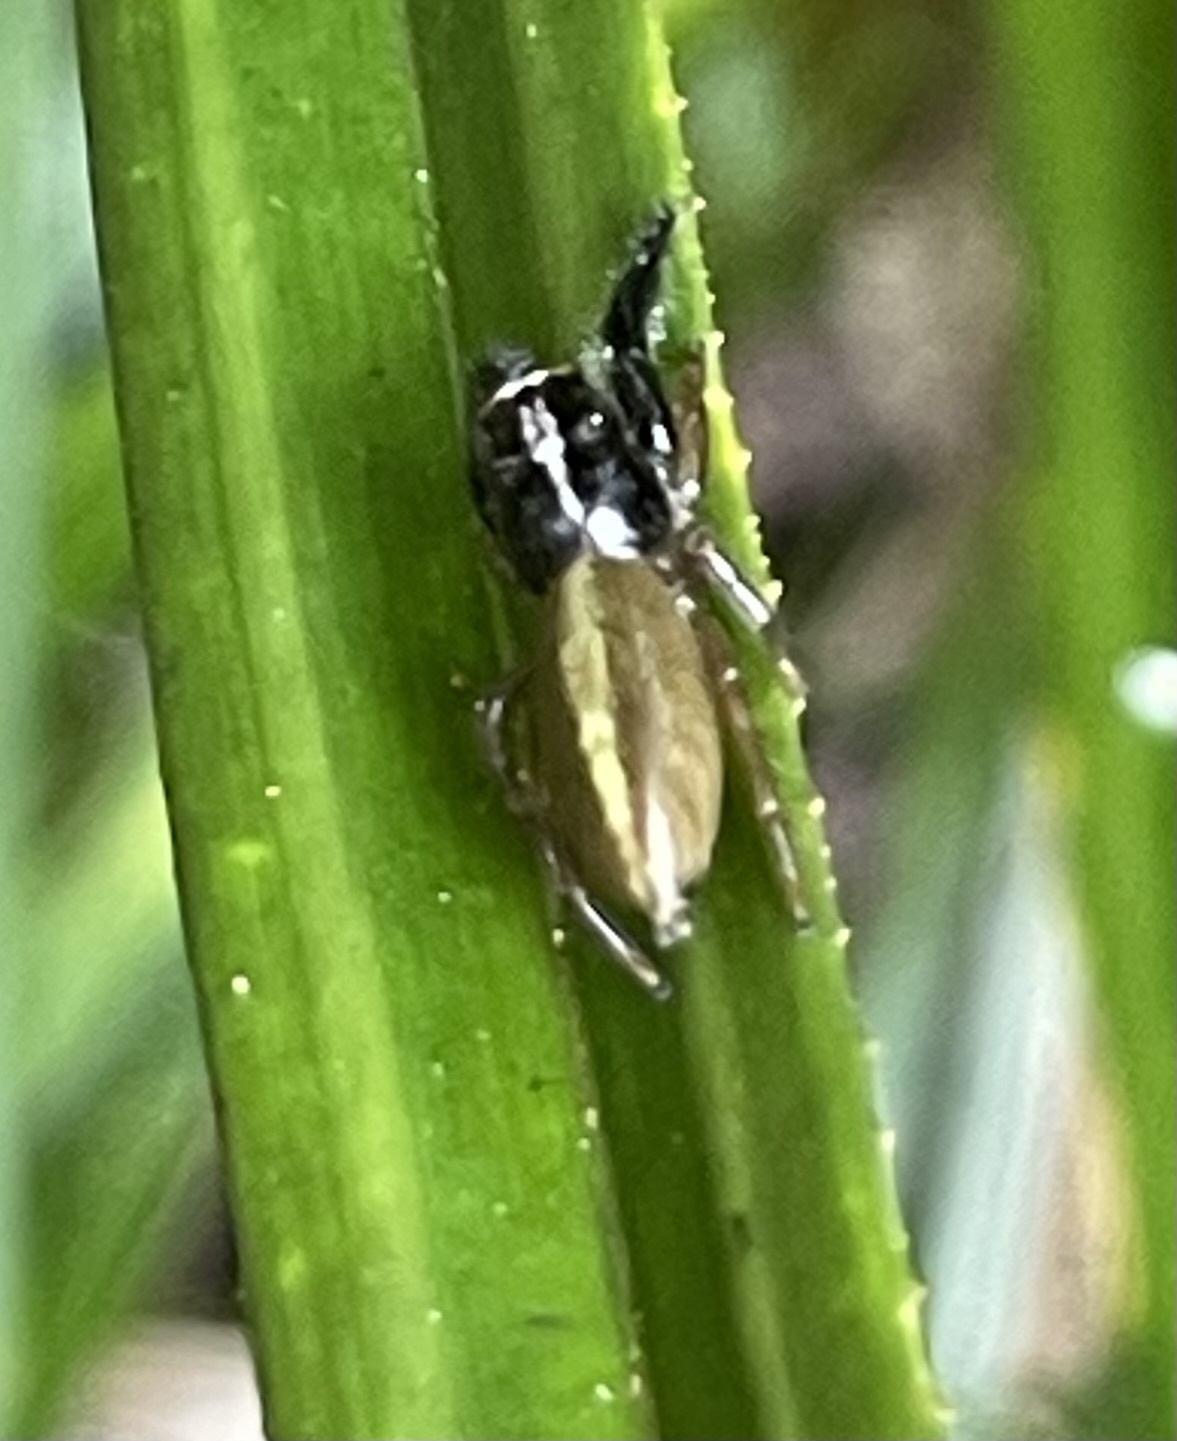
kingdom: Animalia
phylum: Arthropoda
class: Arachnida
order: Araneae
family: Salticidae
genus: Trite
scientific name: Trite planiceps
